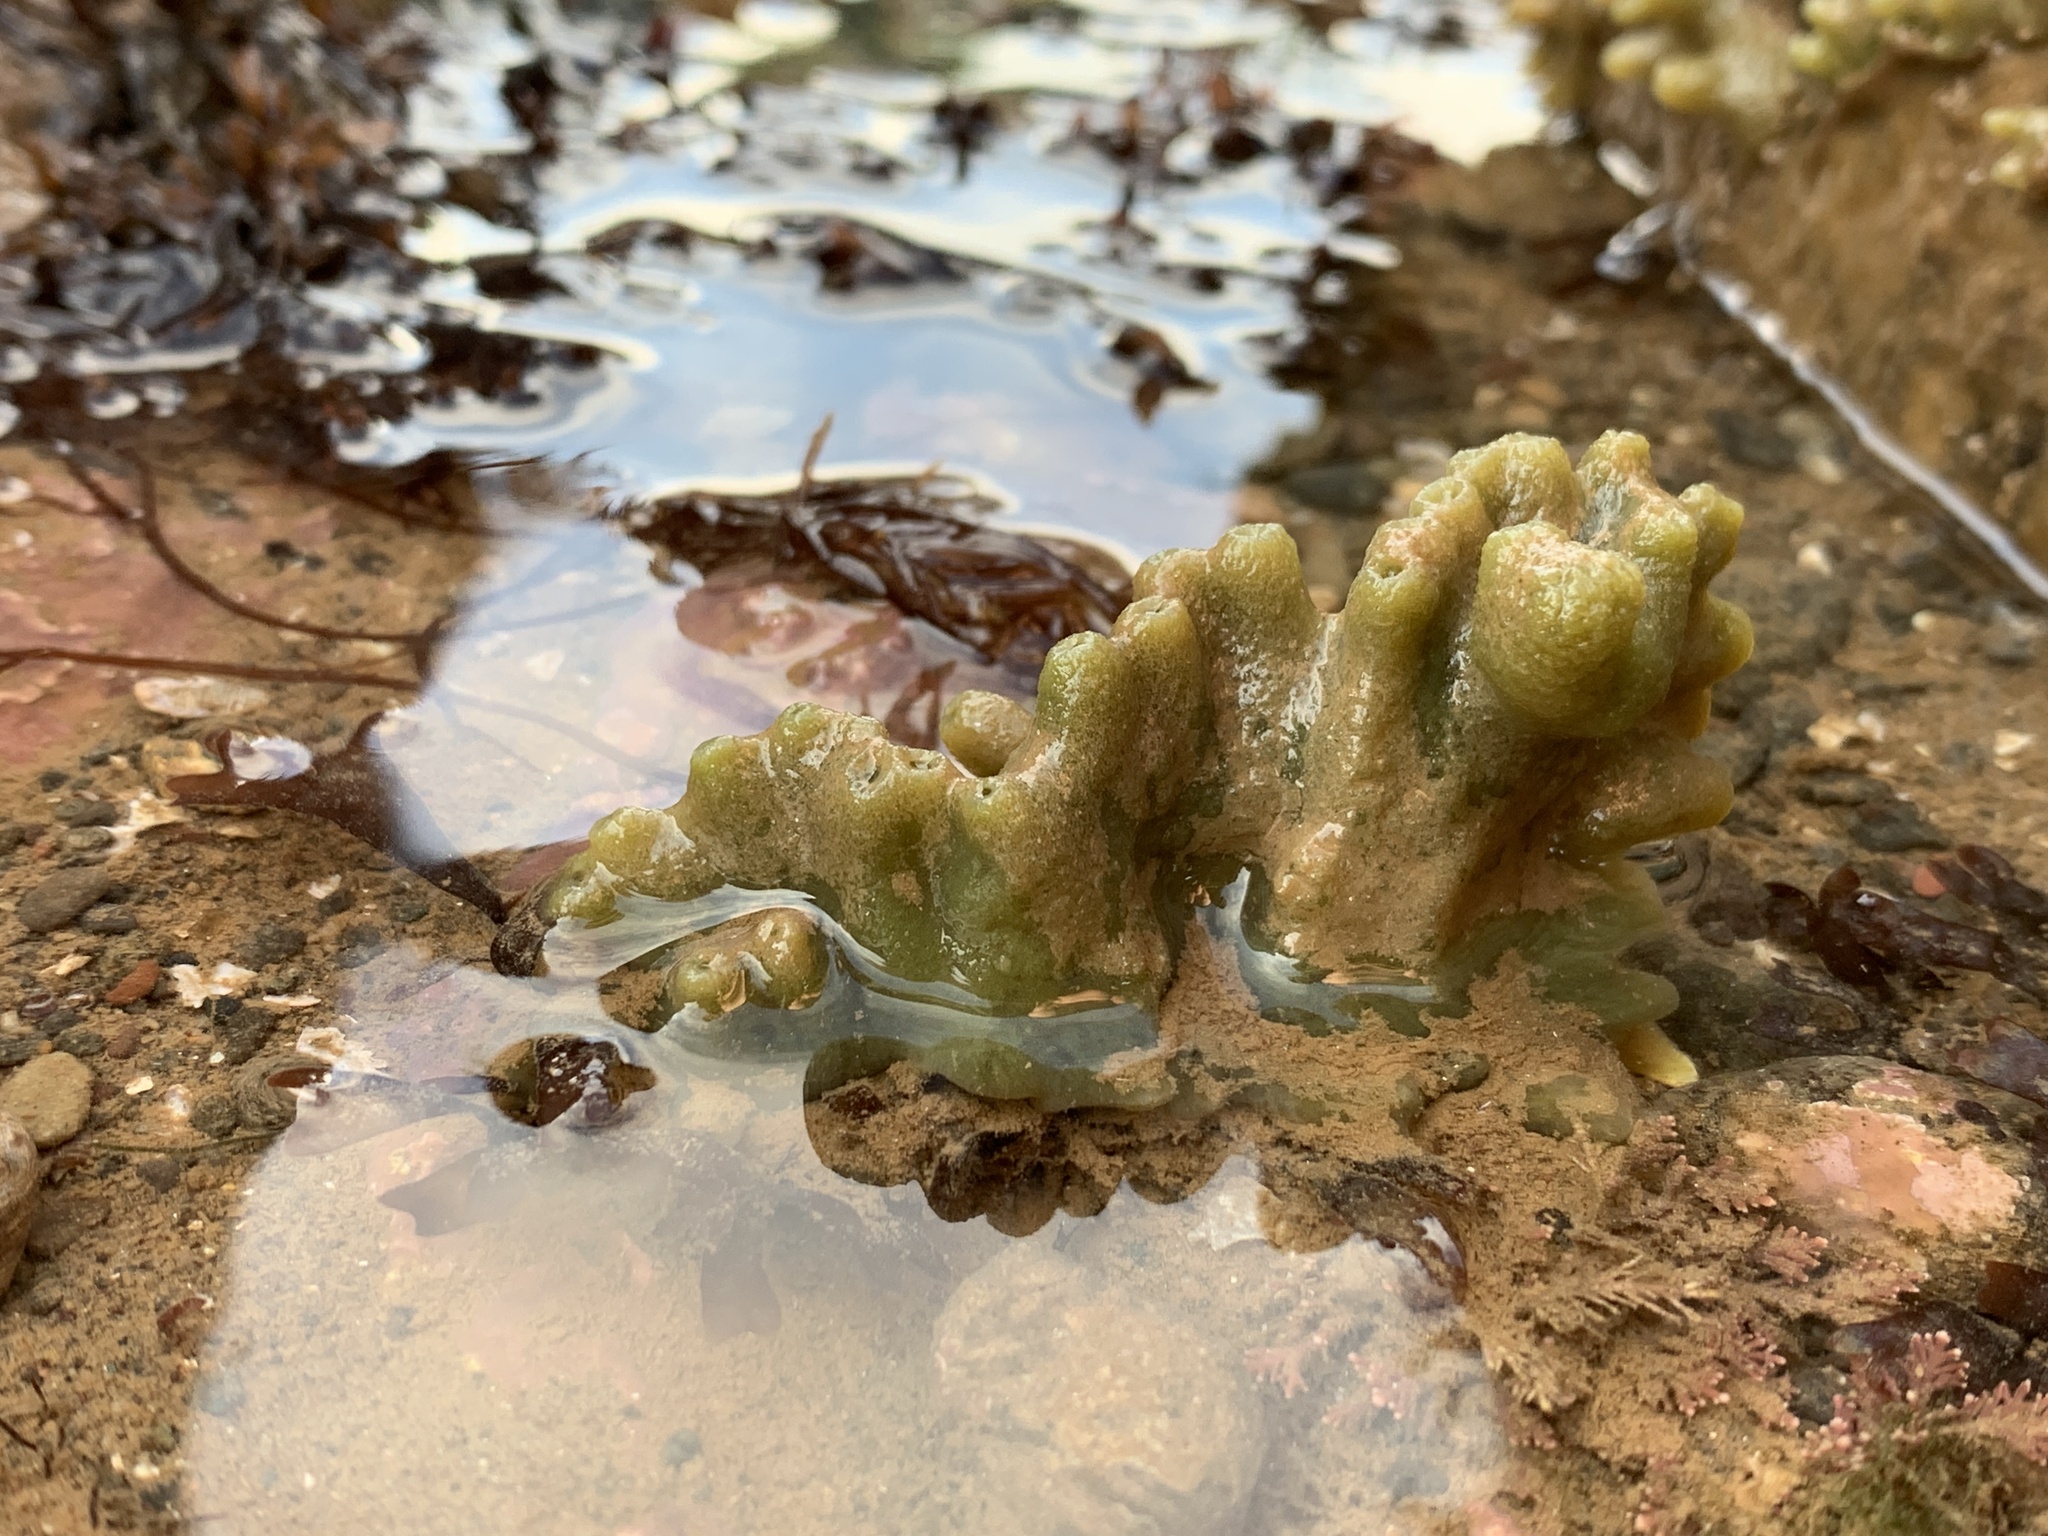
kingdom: Animalia
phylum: Porifera
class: Demospongiae
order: Suberitida
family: Halichondriidae
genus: Halichondria
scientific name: Halichondria panicea
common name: Breadcrumb sponge
